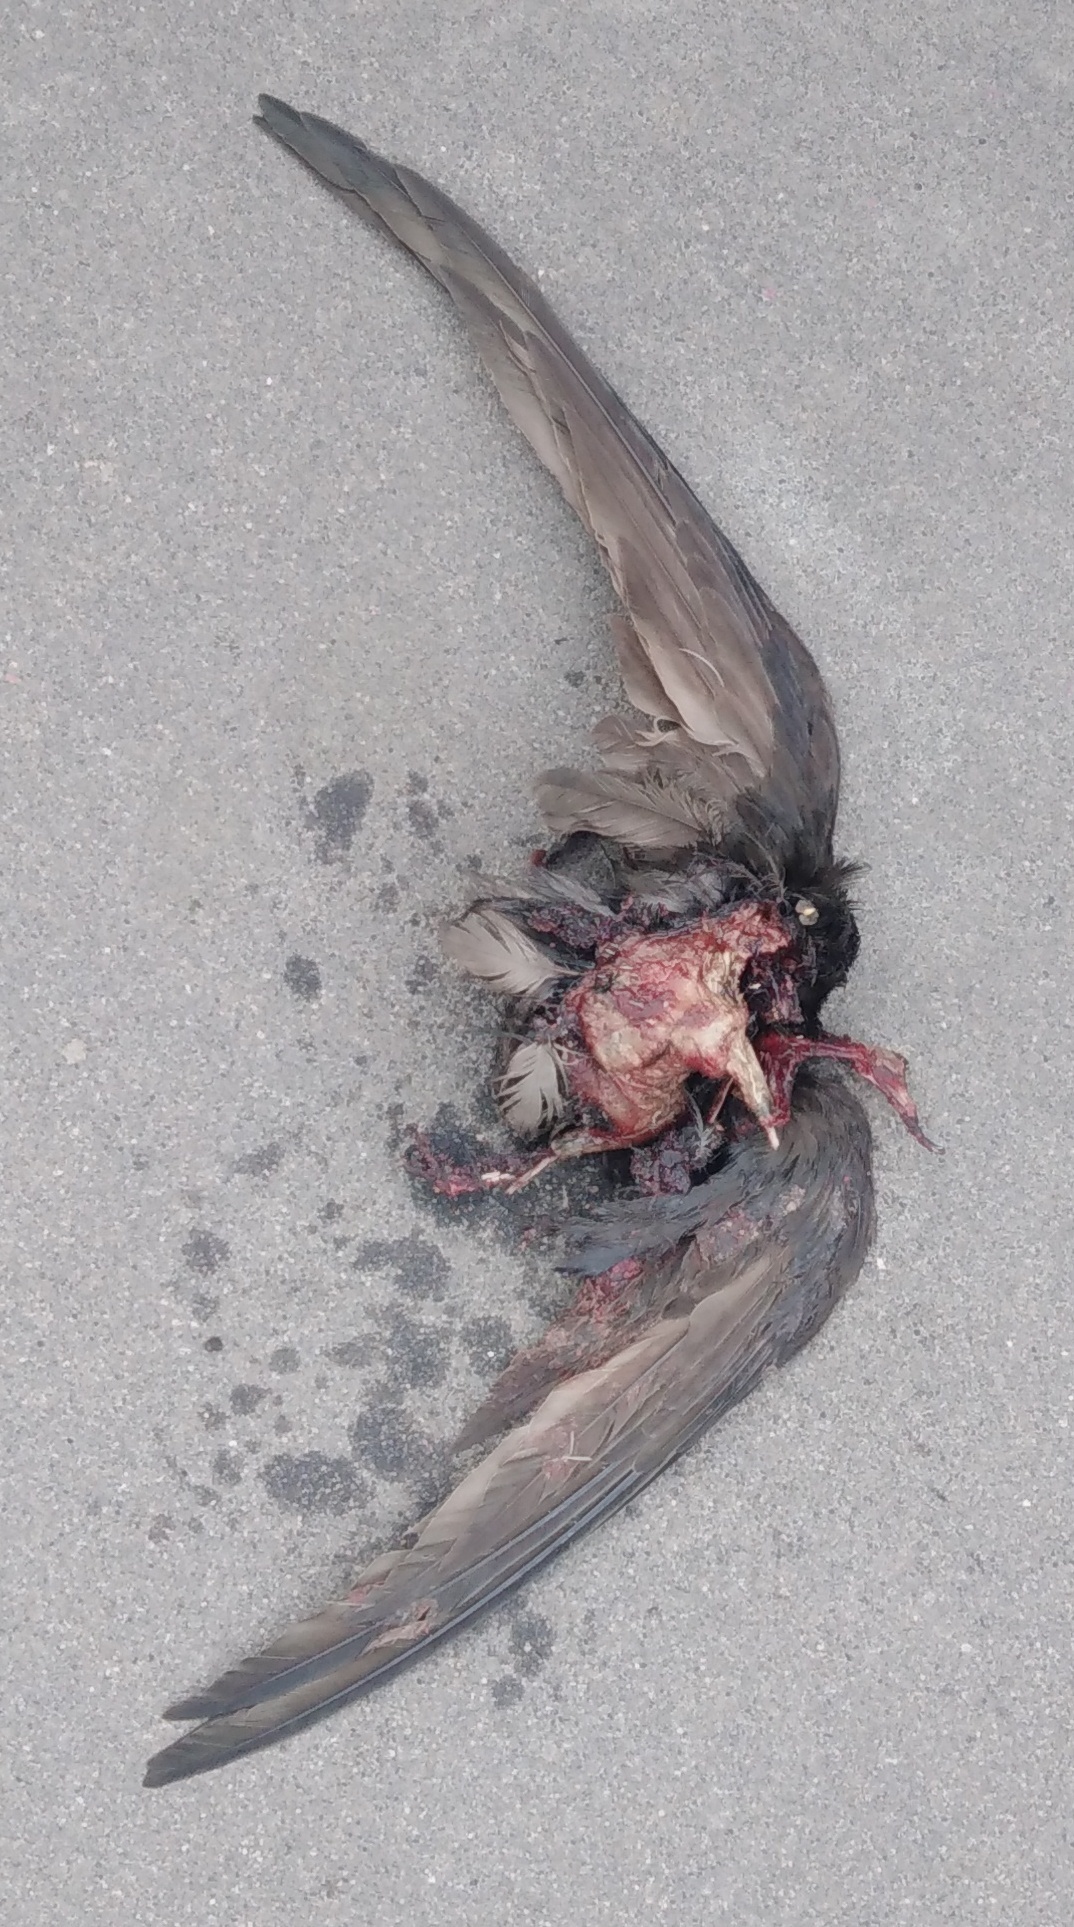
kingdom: Animalia
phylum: Chordata
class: Aves
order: Apodiformes
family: Apodidae
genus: Apus
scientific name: Apus apus
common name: Common swift
